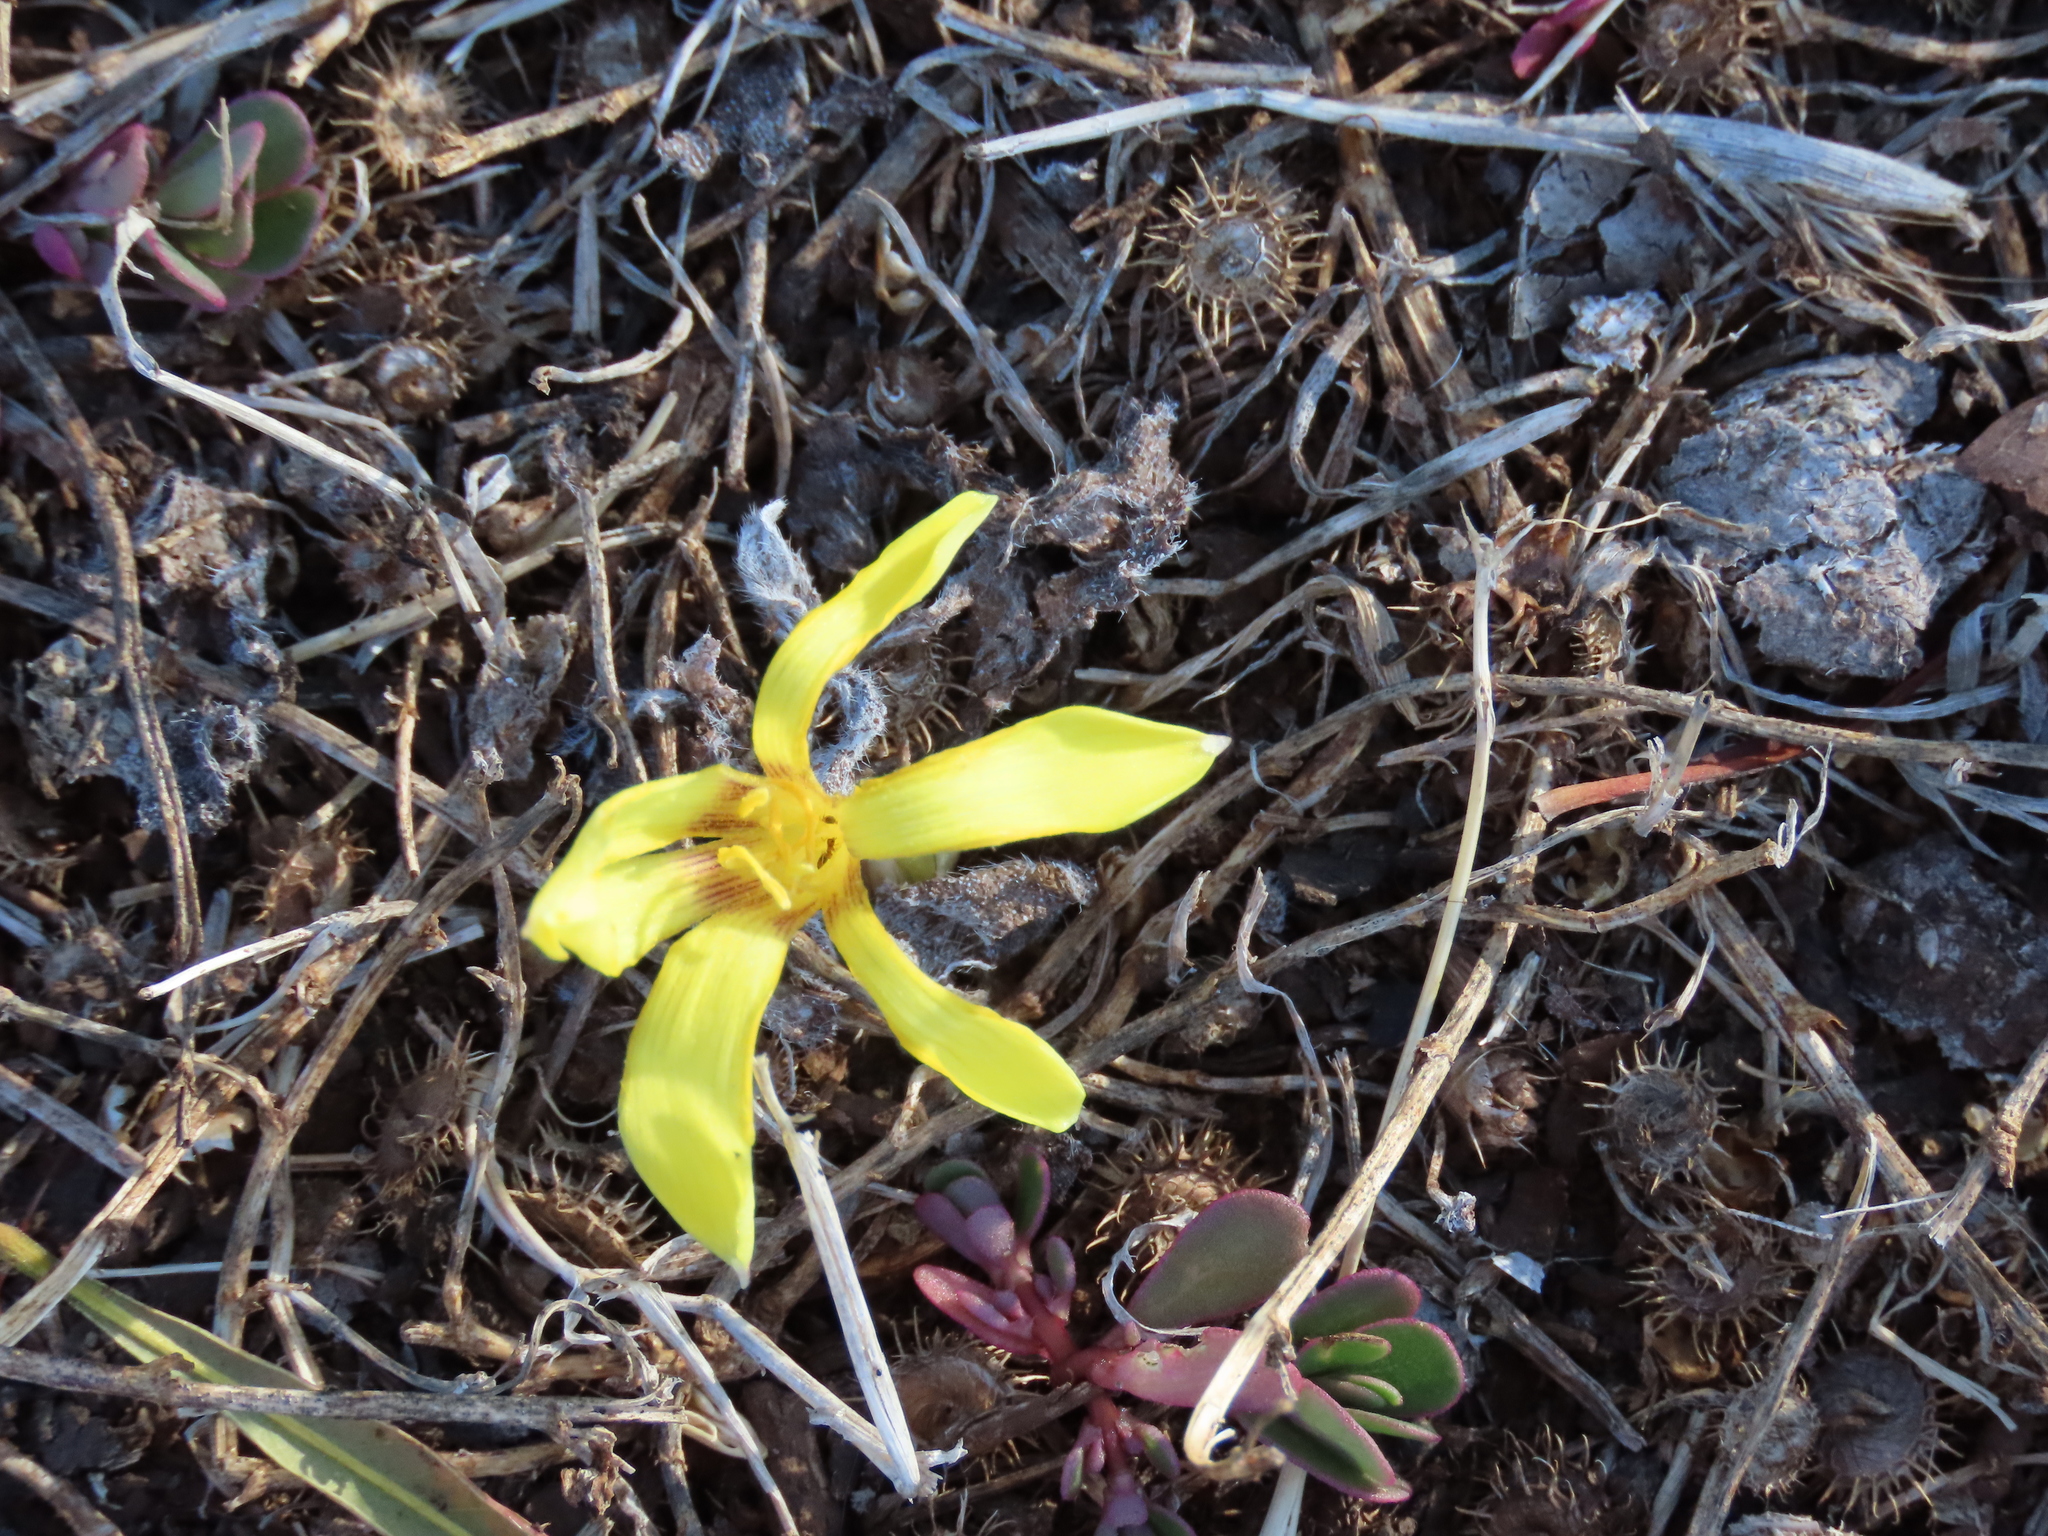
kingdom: Plantae
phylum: Tracheophyta
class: Liliopsida
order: Asparagales
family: Amaryllidaceae
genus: Zephyranthes
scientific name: Zephyranthes americana
